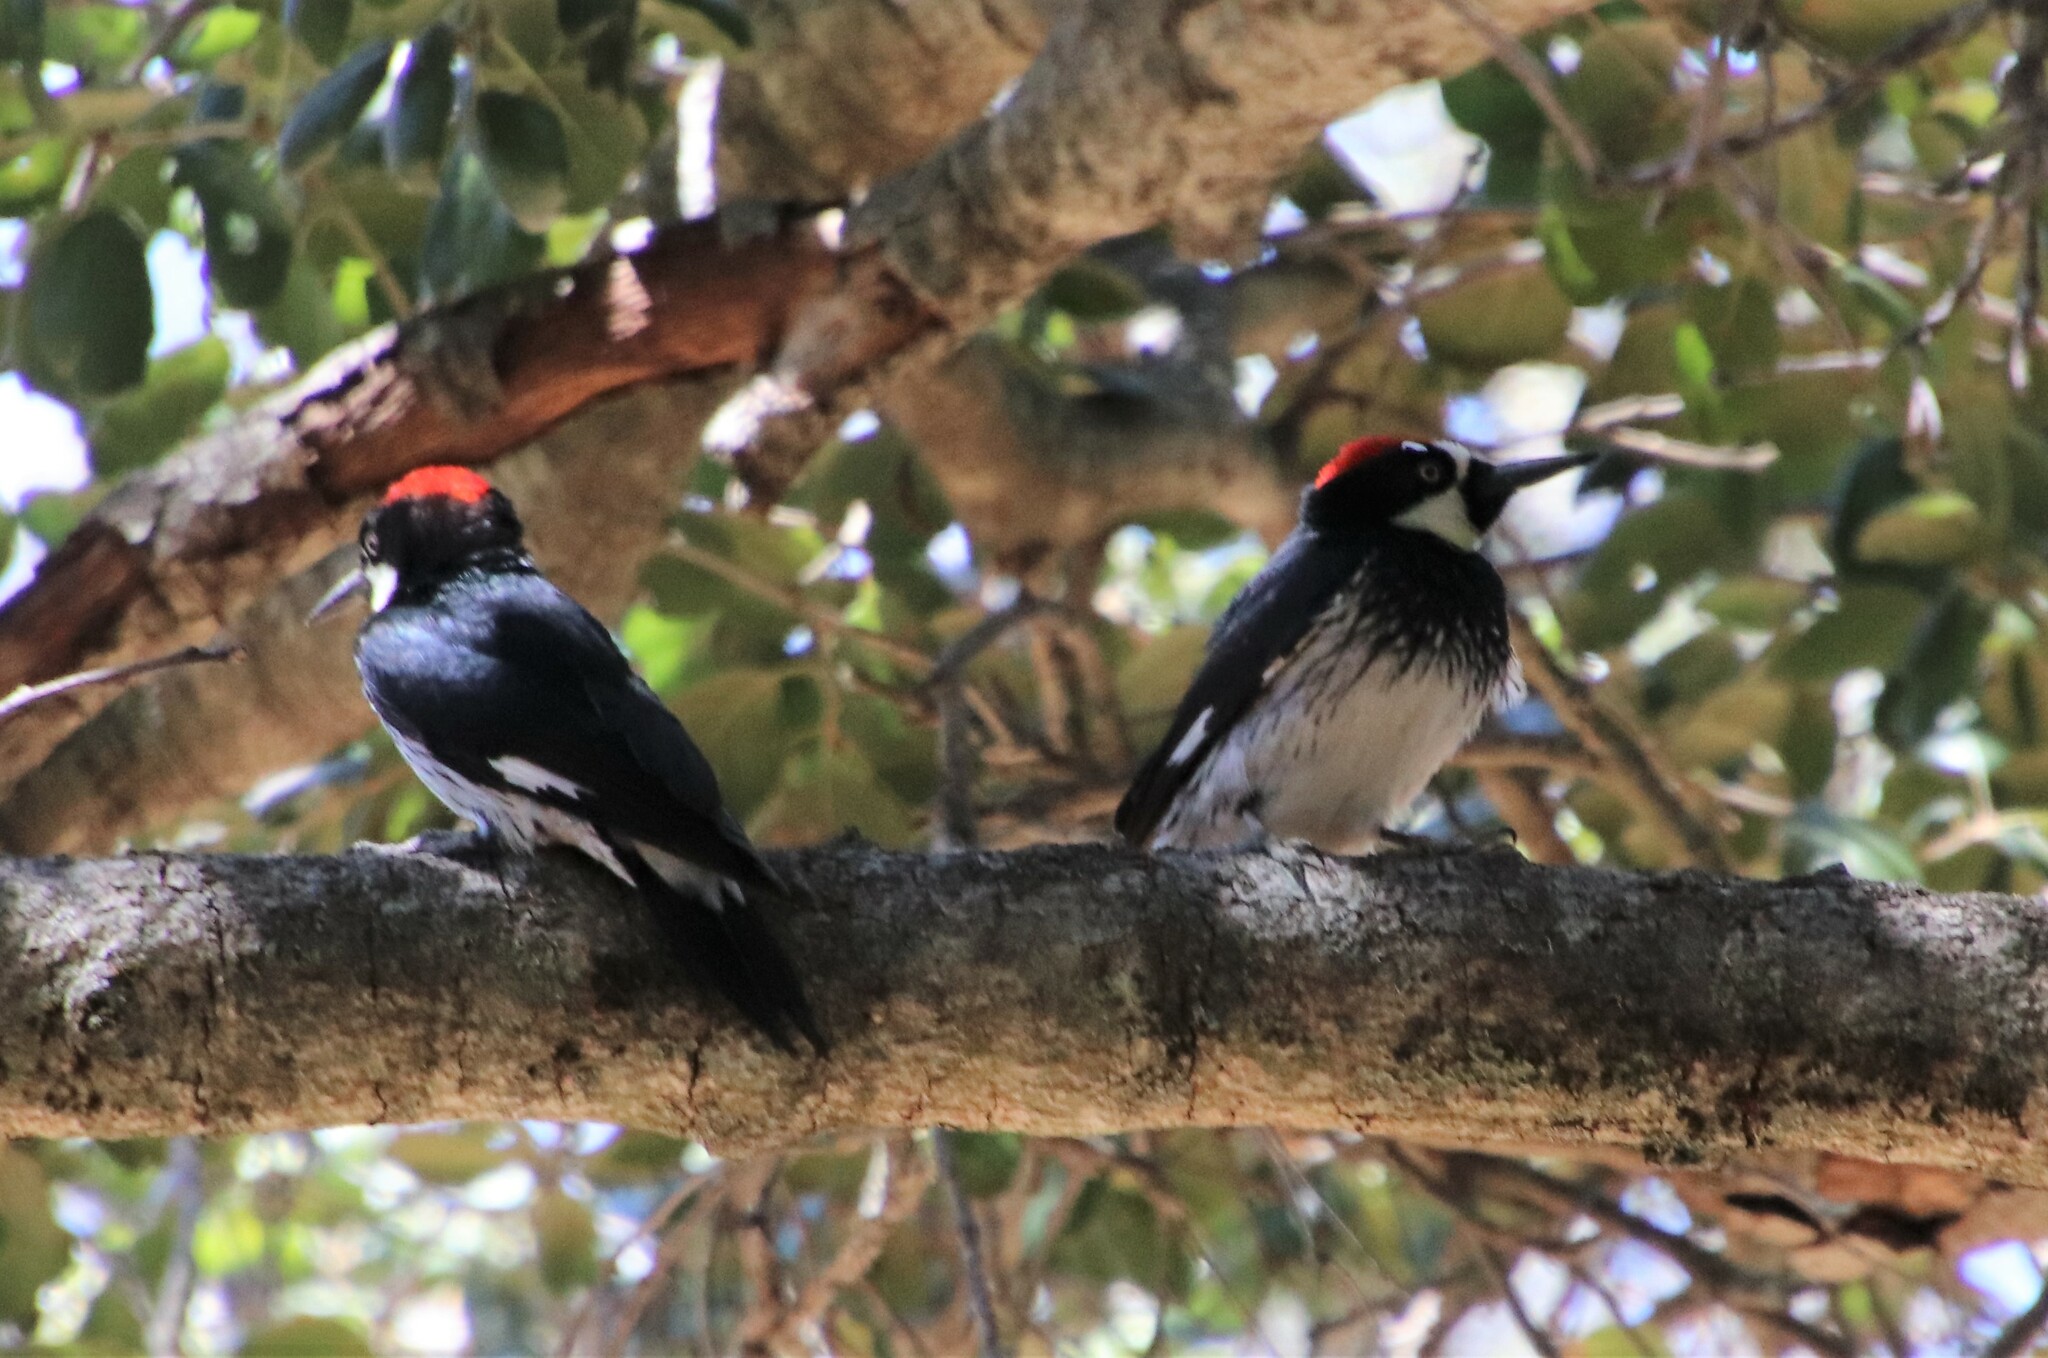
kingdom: Animalia
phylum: Chordata
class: Aves
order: Piciformes
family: Picidae
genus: Melanerpes
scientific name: Melanerpes formicivorus
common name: Acorn woodpecker
